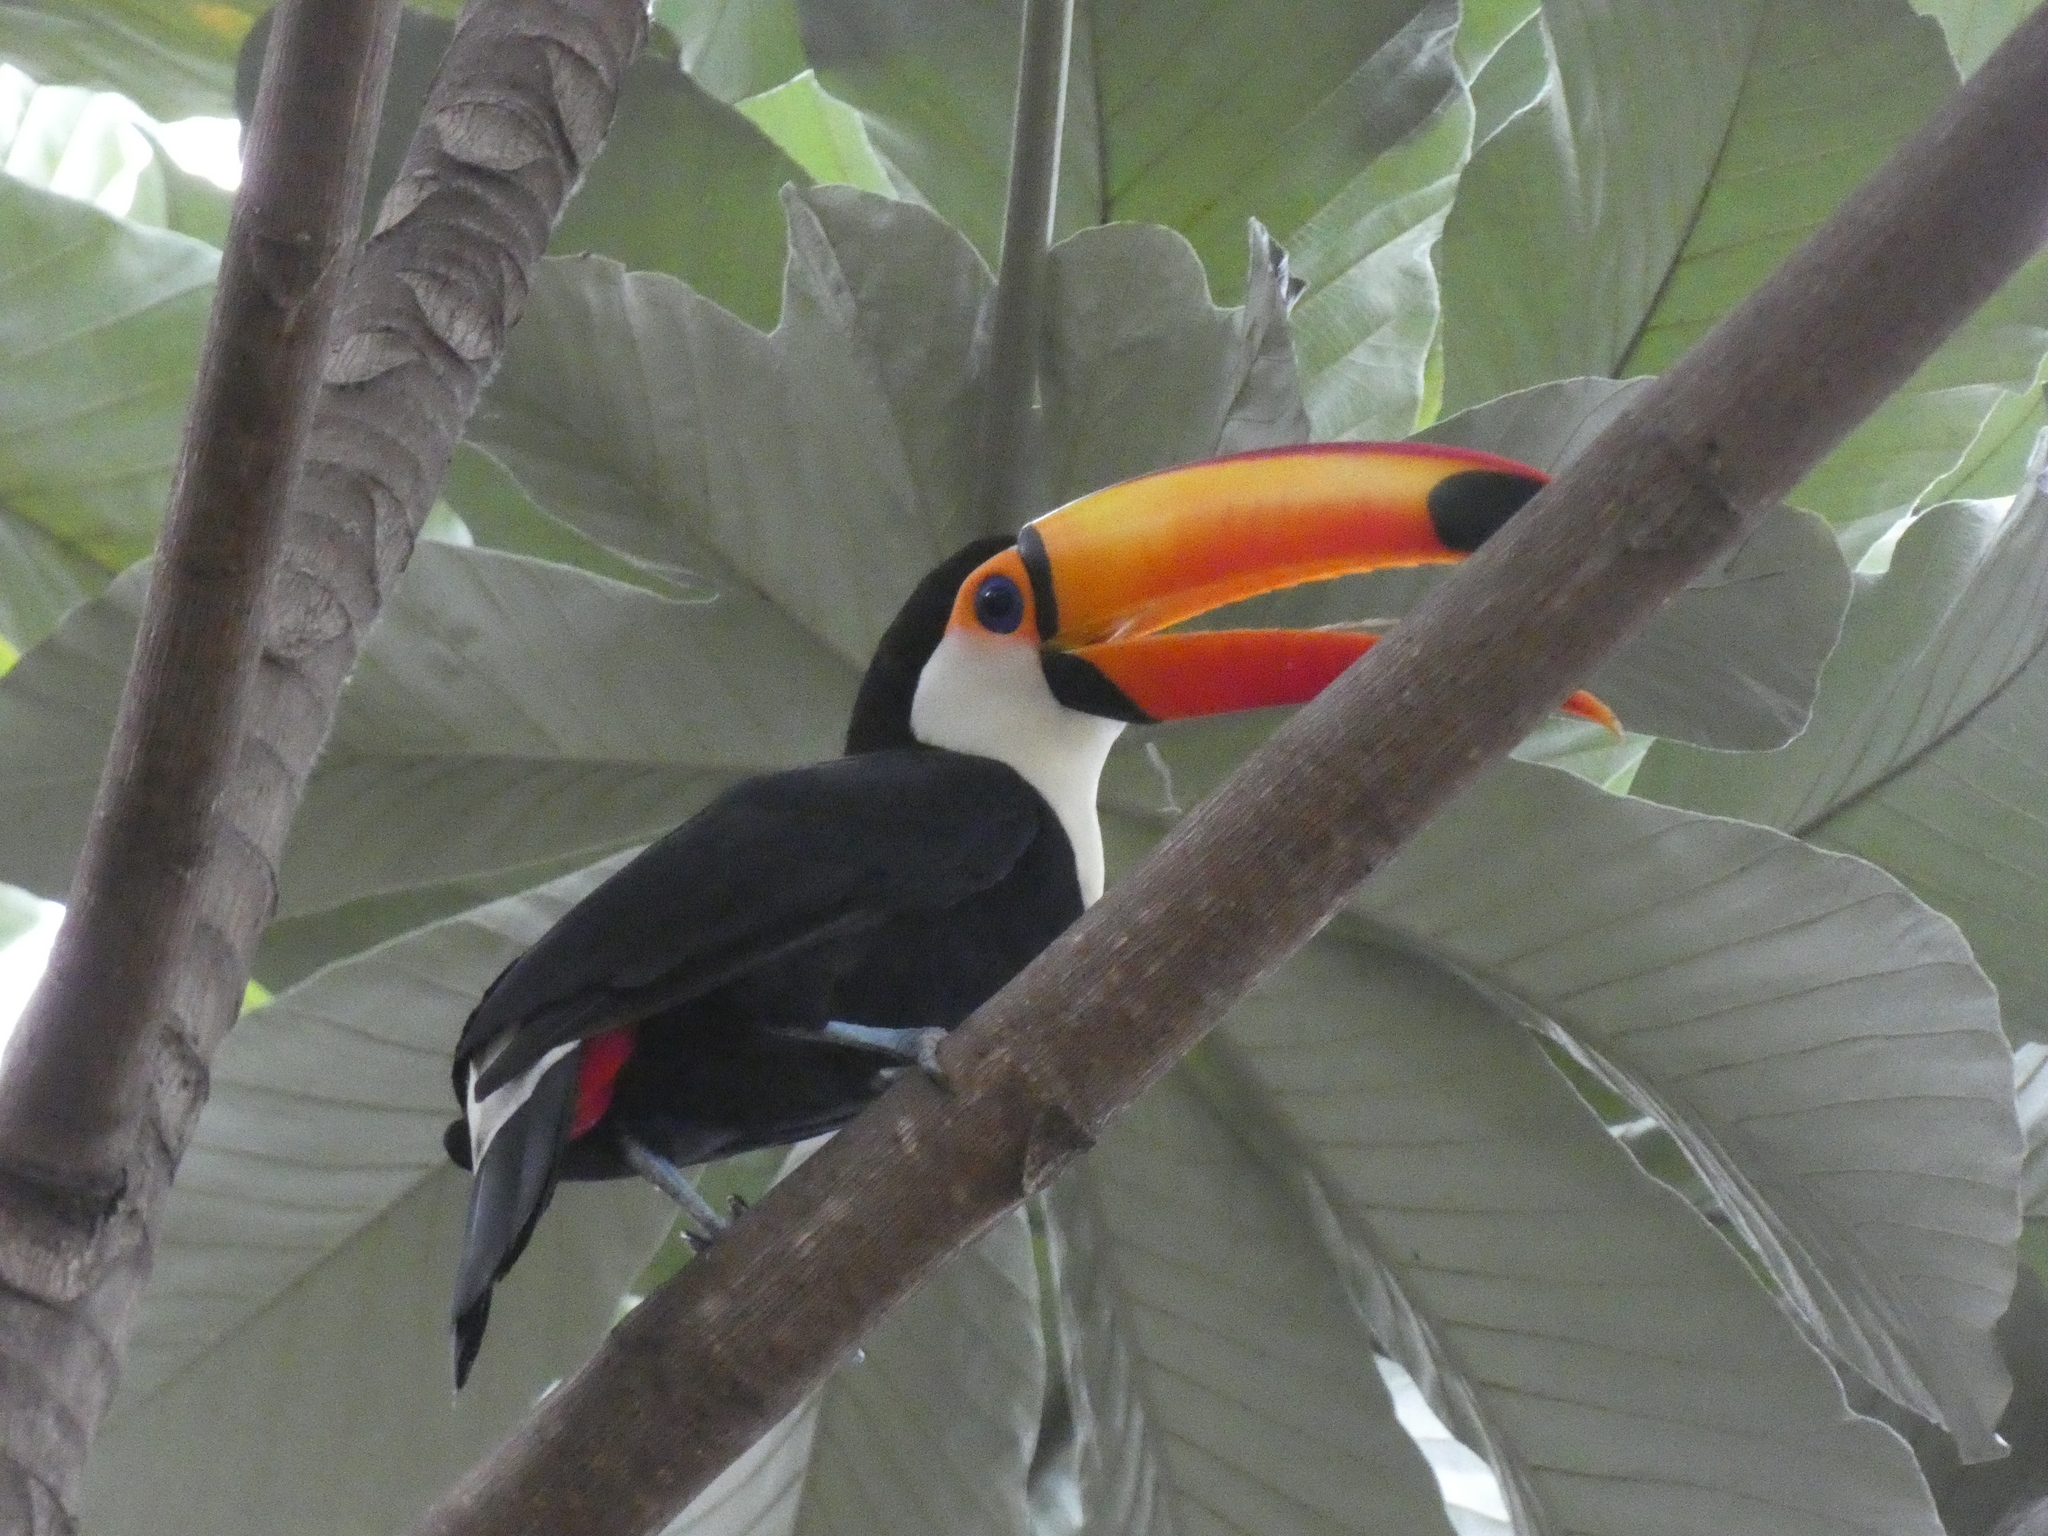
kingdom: Animalia
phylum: Chordata
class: Aves
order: Piciformes
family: Ramphastidae
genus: Ramphastos
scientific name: Ramphastos toco
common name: Toco toucan
